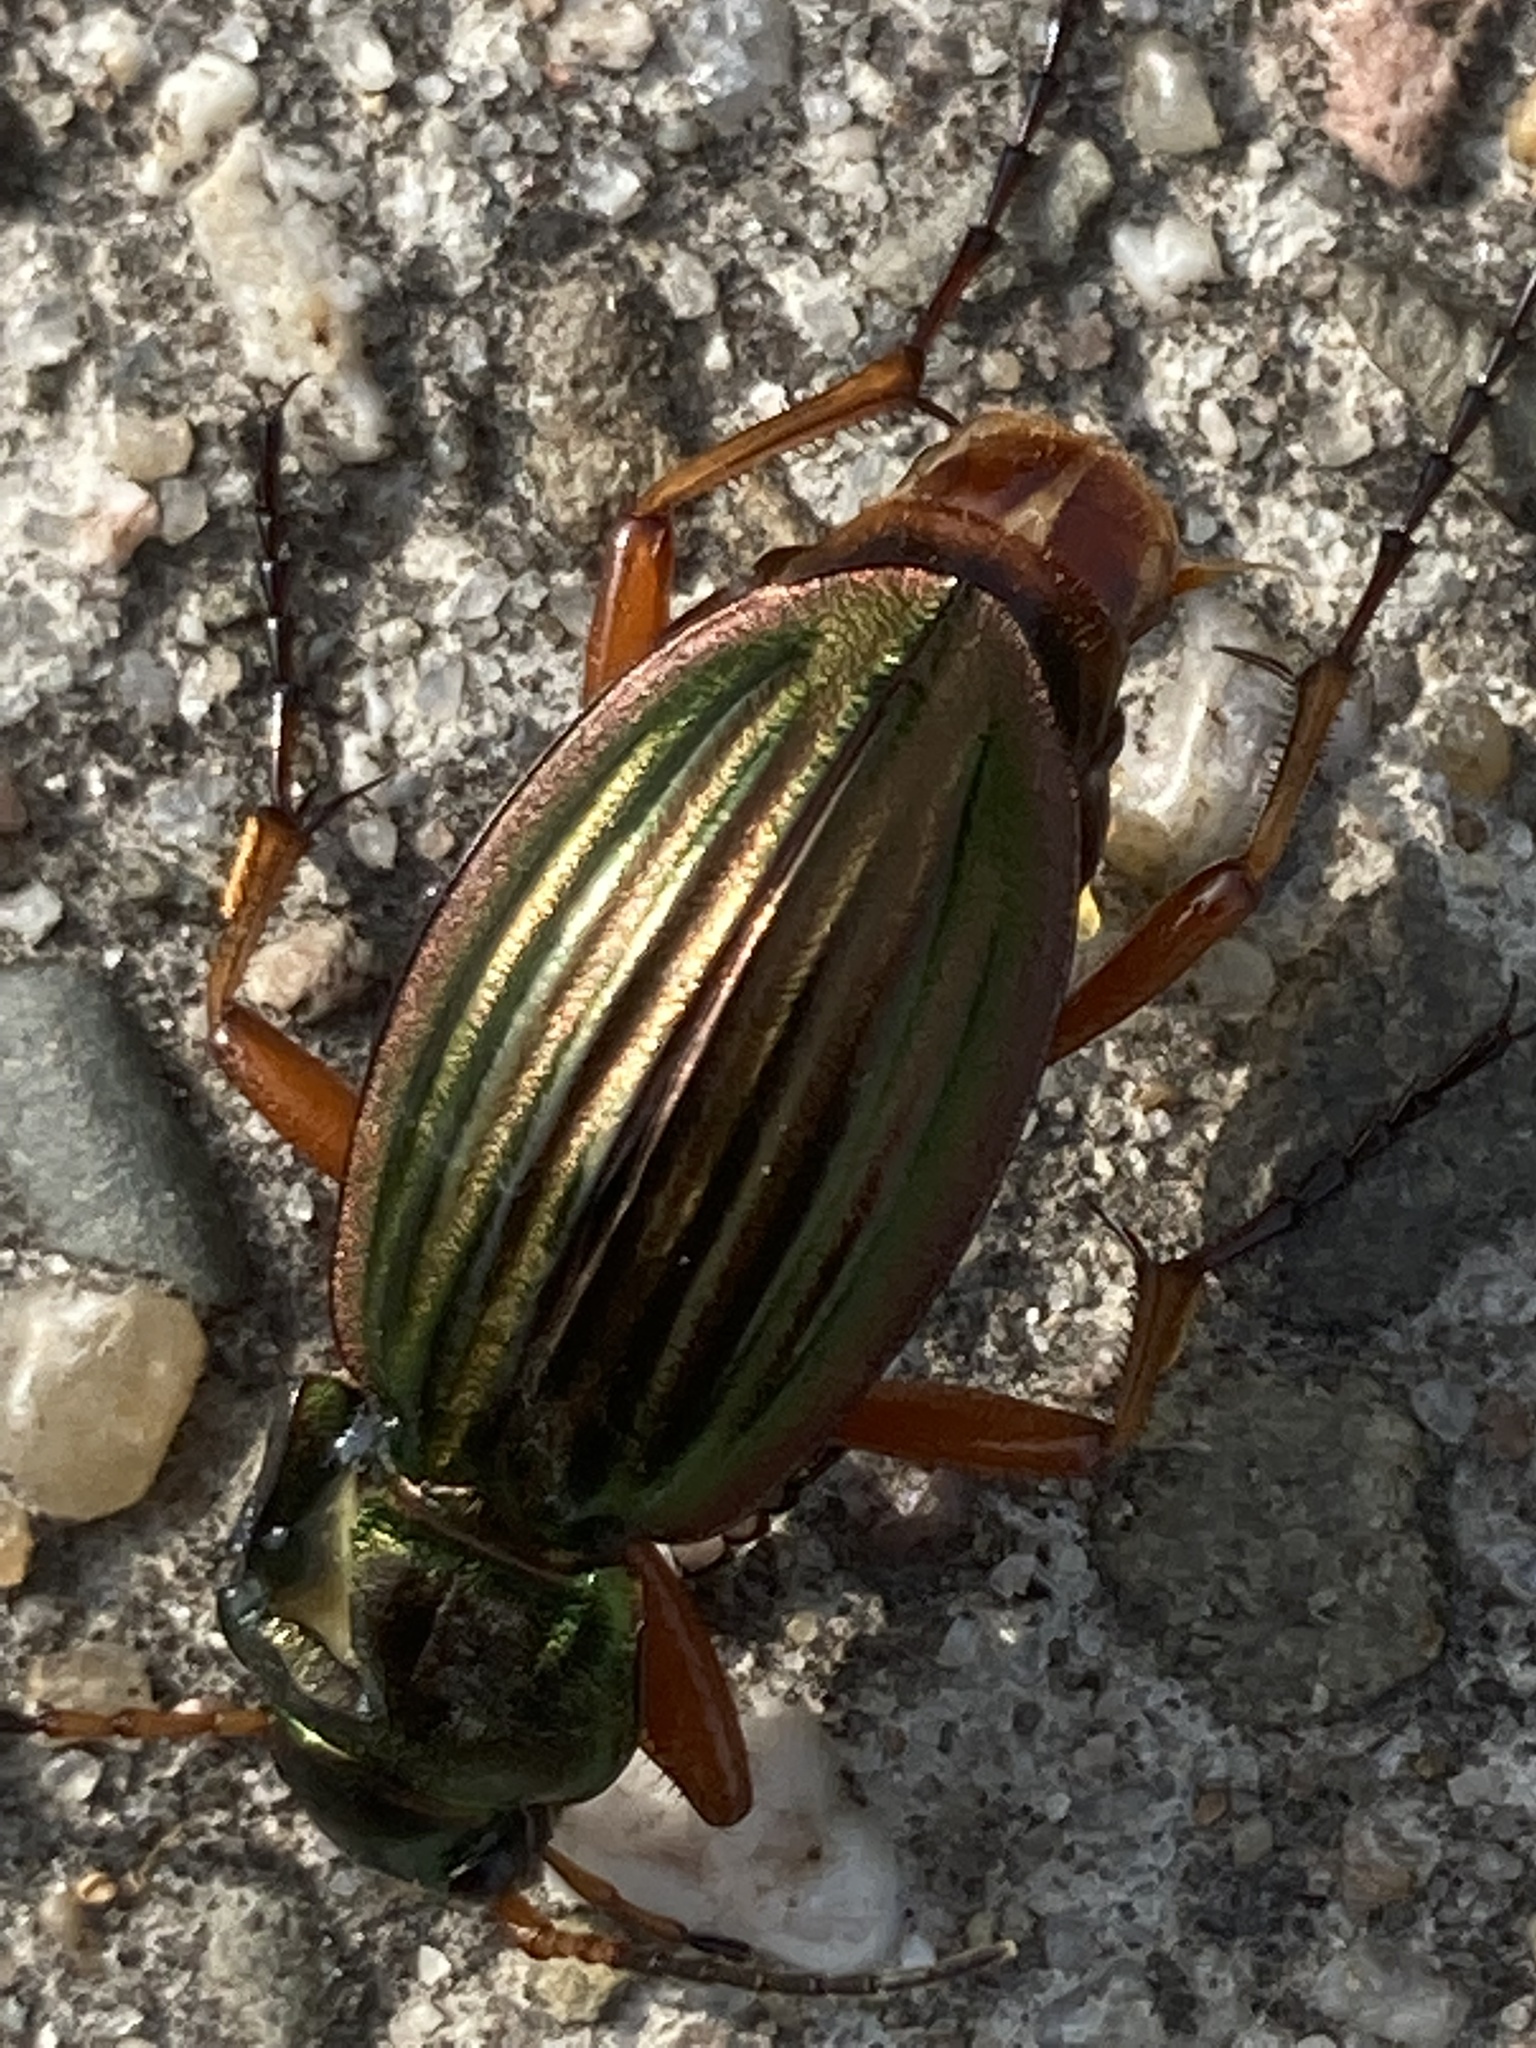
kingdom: Animalia
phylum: Arthropoda
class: Insecta
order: Coleoptera
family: Carabidae
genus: Carabus
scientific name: Carabus auratus
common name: Golden ground beetle
